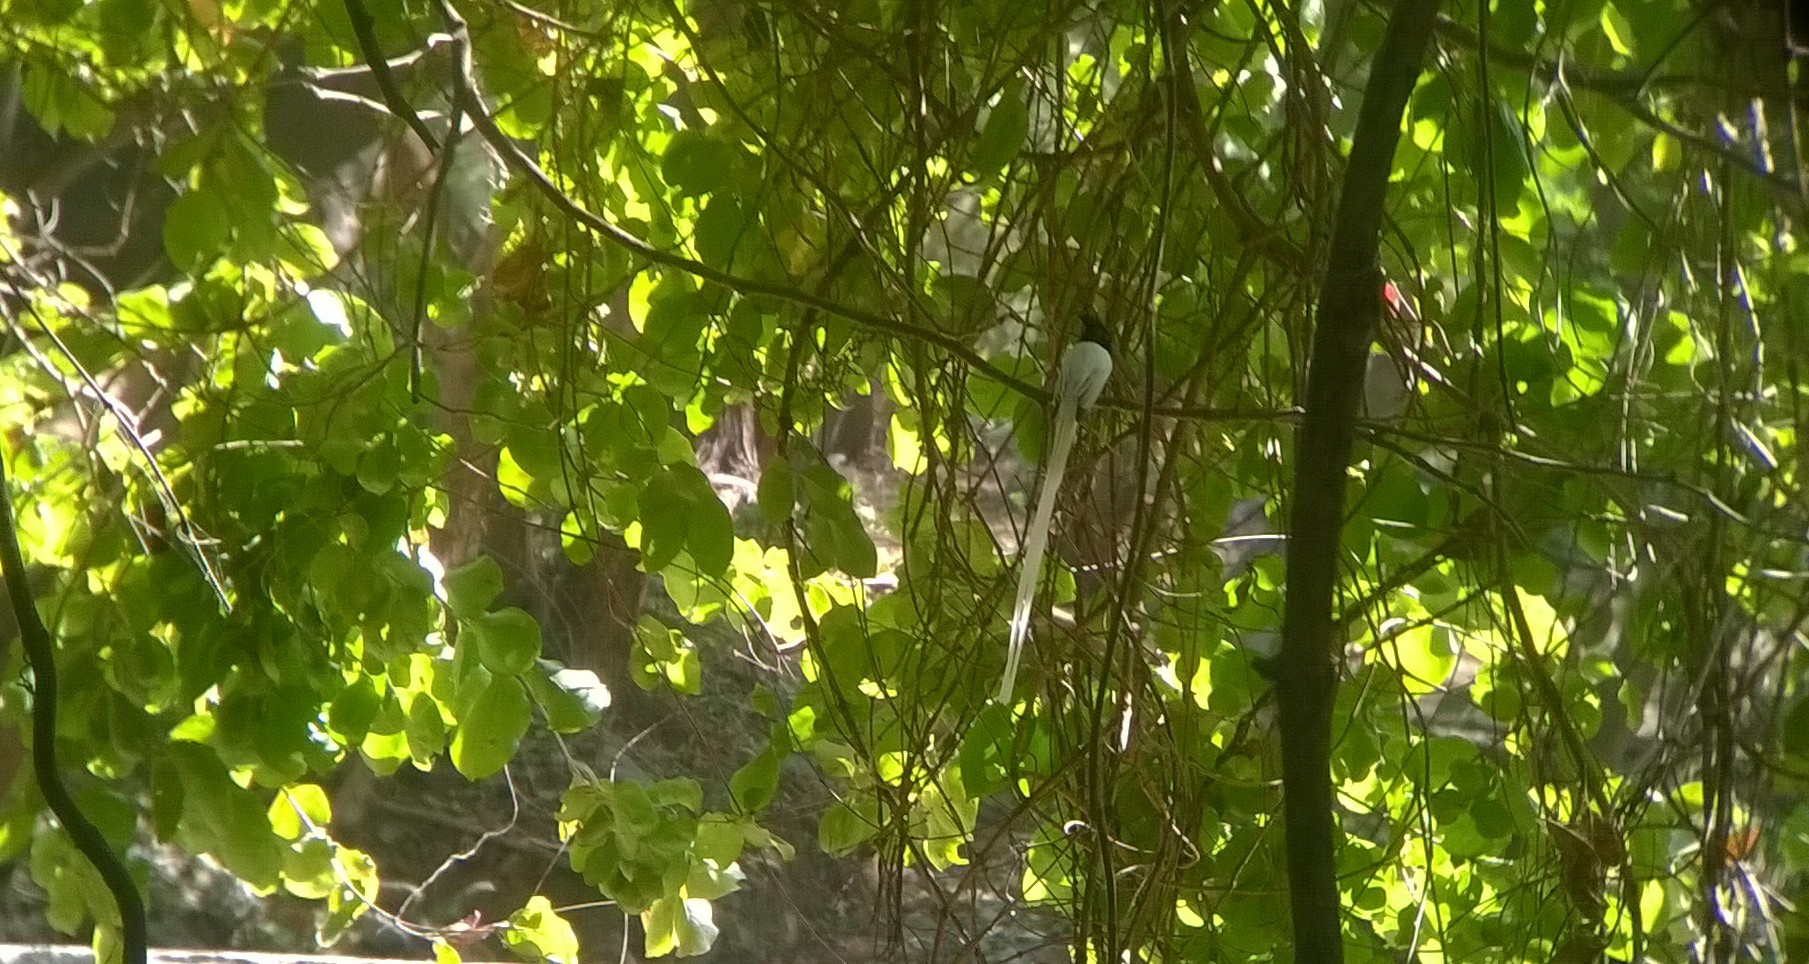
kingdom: Animalia
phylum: Chordata
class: Aves
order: Passeriformes
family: Monarchidae
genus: Terpsiphone
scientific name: Terpsiphone paradisi
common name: Indian paradise flycatcher
